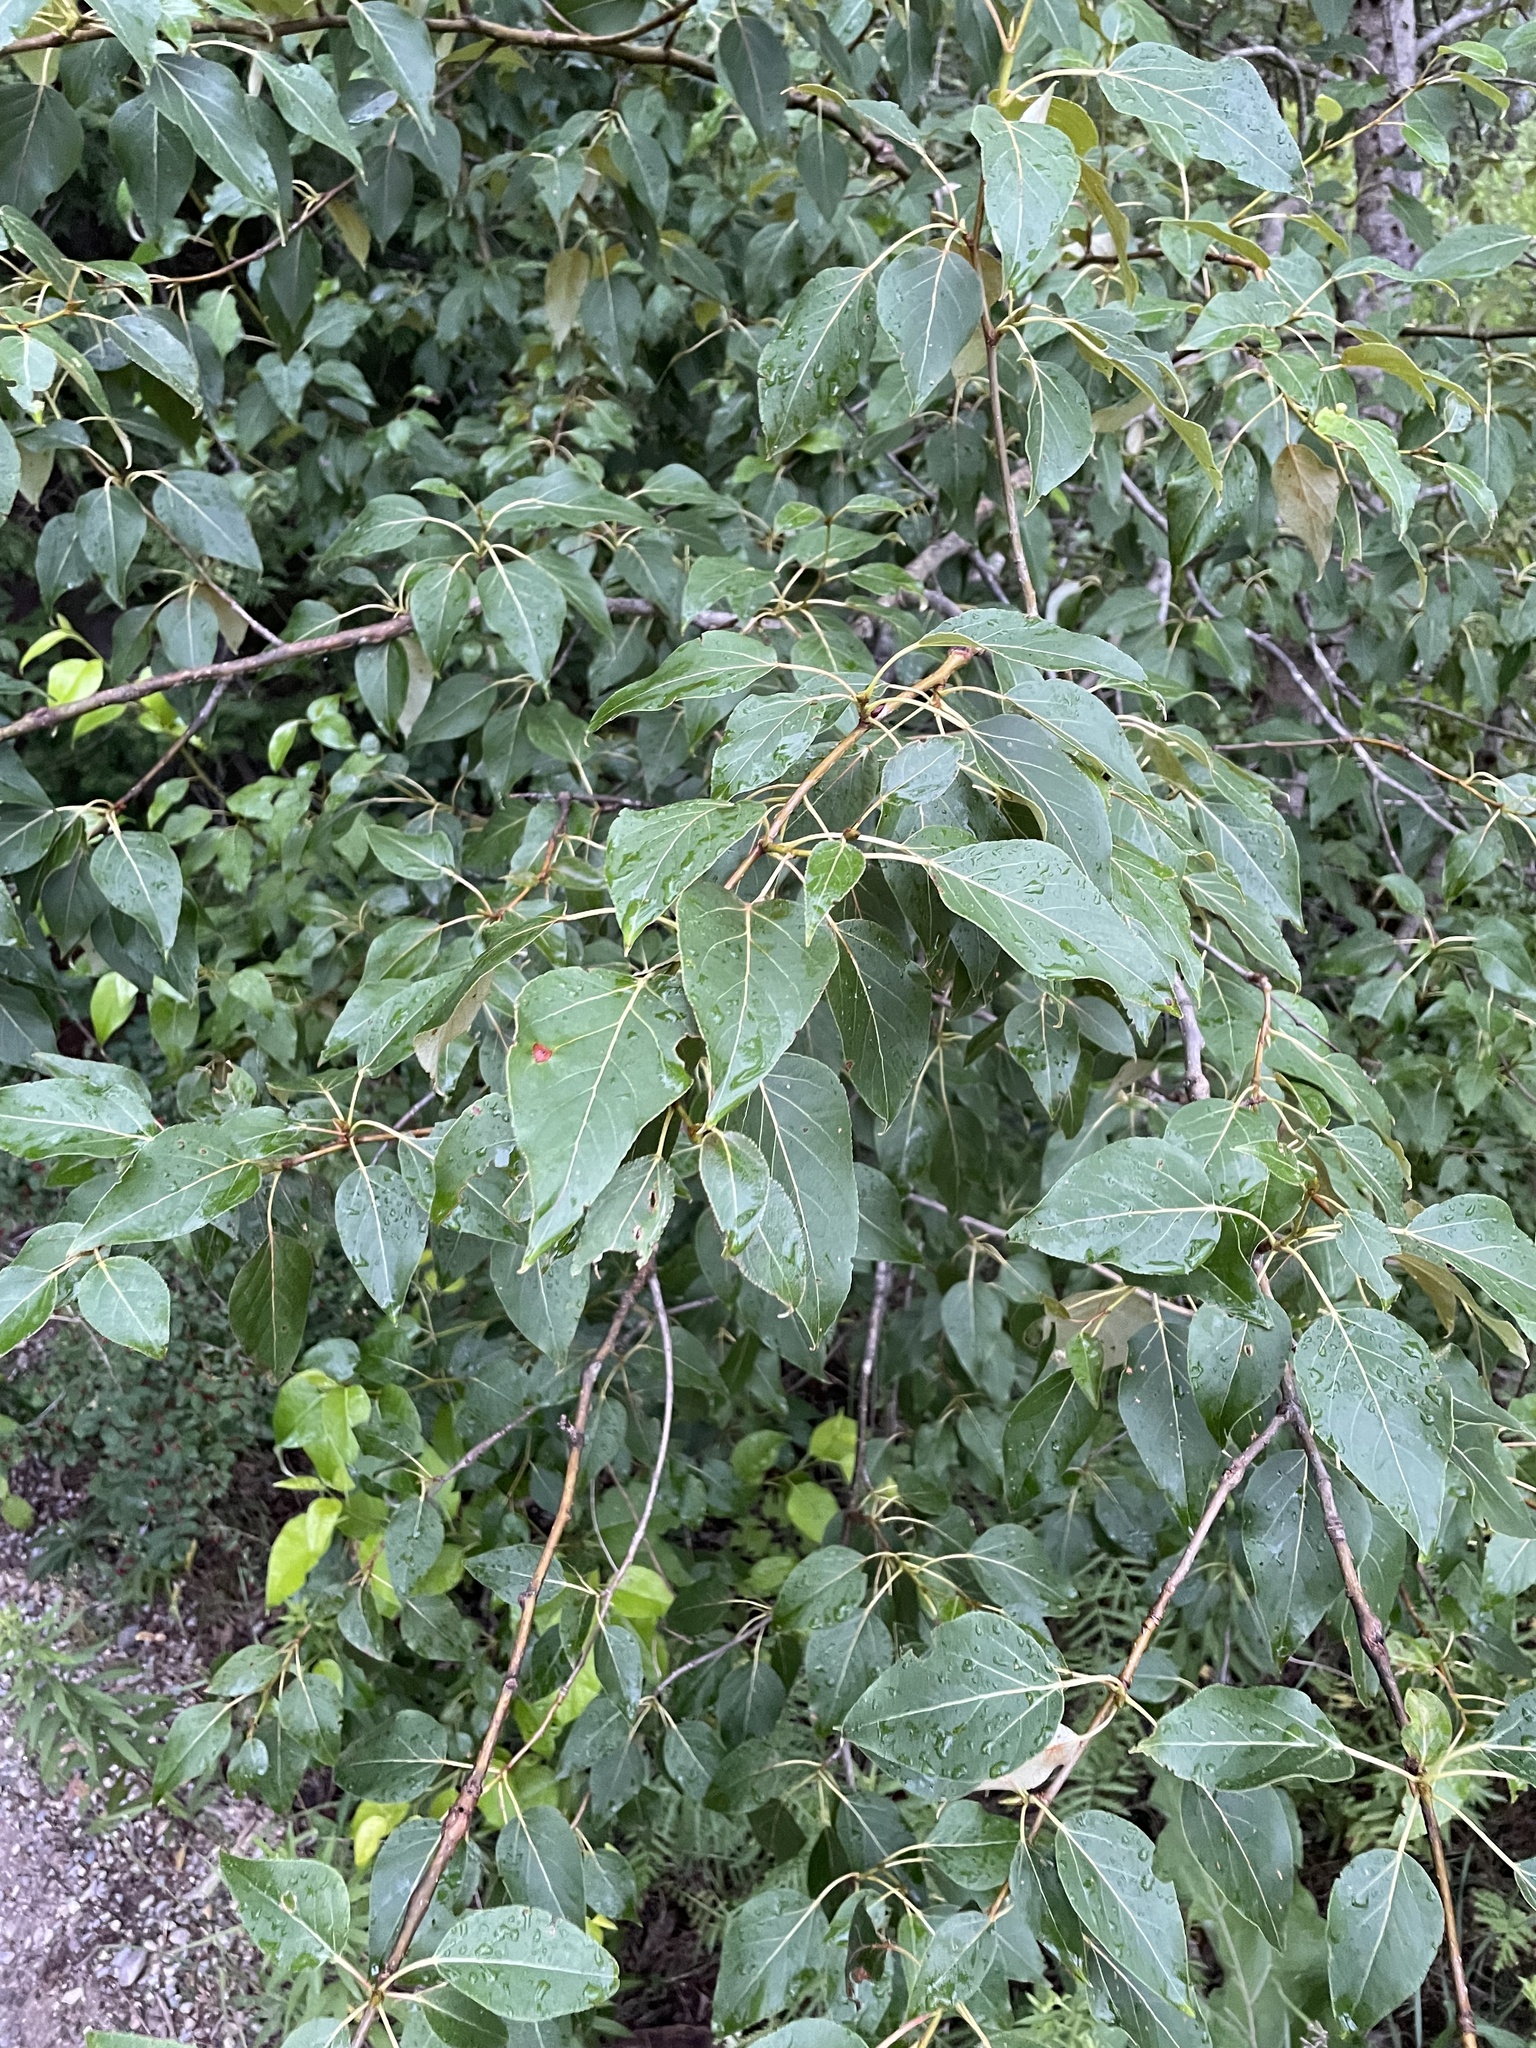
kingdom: Plantae
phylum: Tracheophyta
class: Magnoliopsida
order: Malpighiales
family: Salicaceae
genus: Populus
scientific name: Populus balsamifera
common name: Balsam poplar
